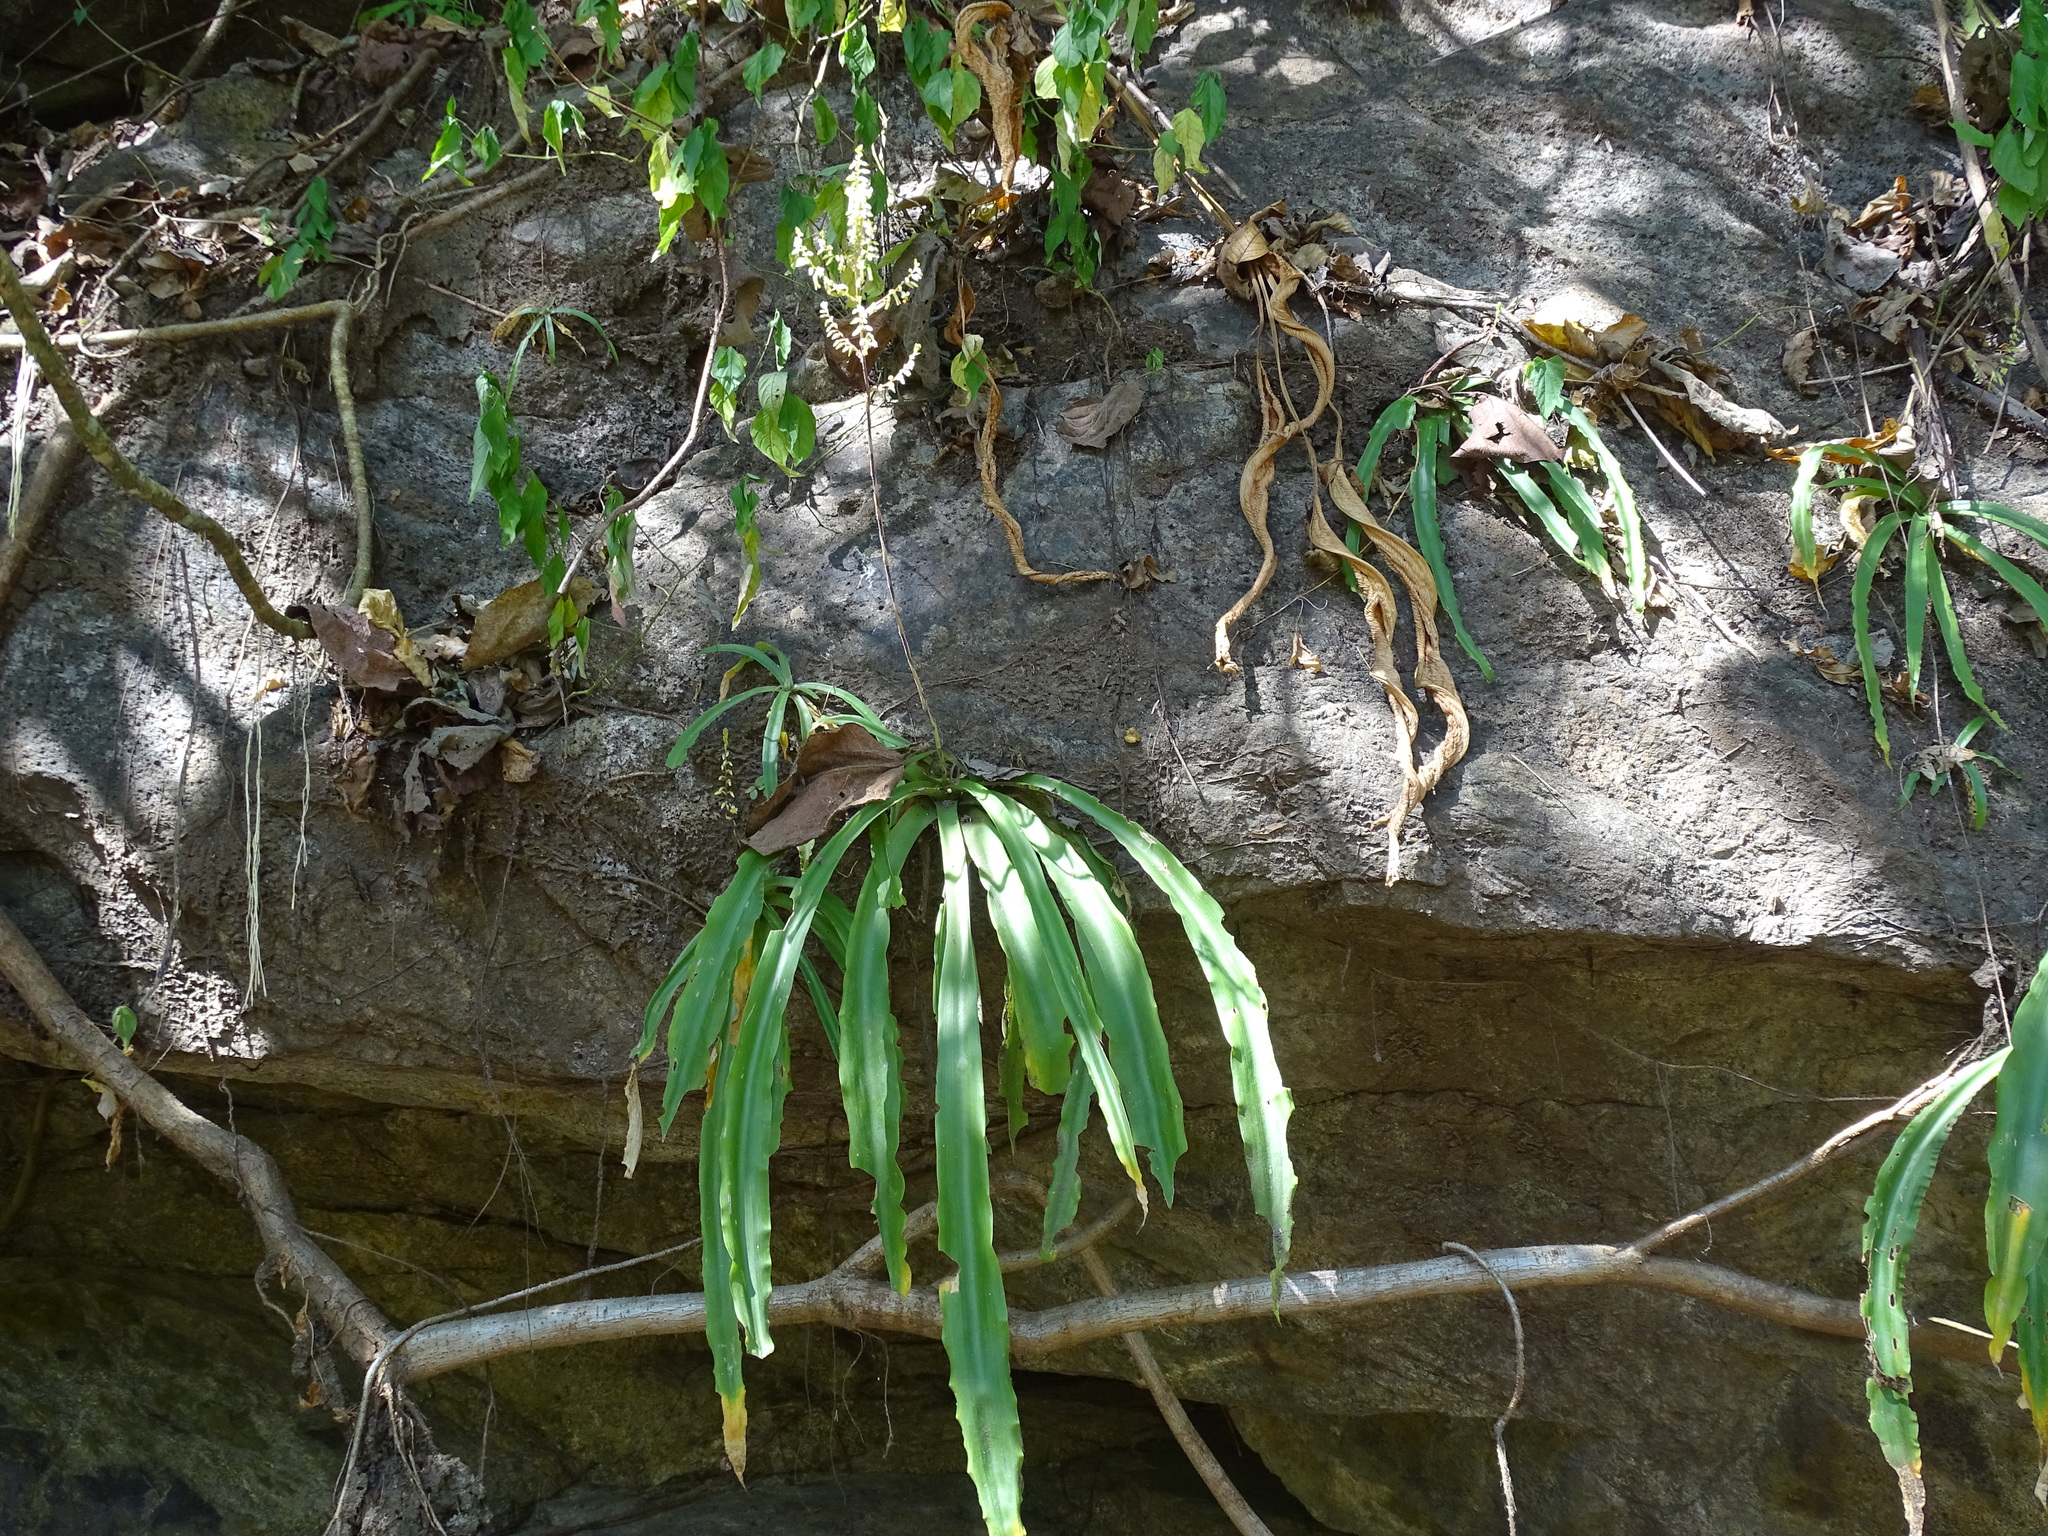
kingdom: Plantae
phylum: Tracheophyta
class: Liliopsida
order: Poales
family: Bromeliaceae
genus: Fosterella
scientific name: Fosterella micrantha
